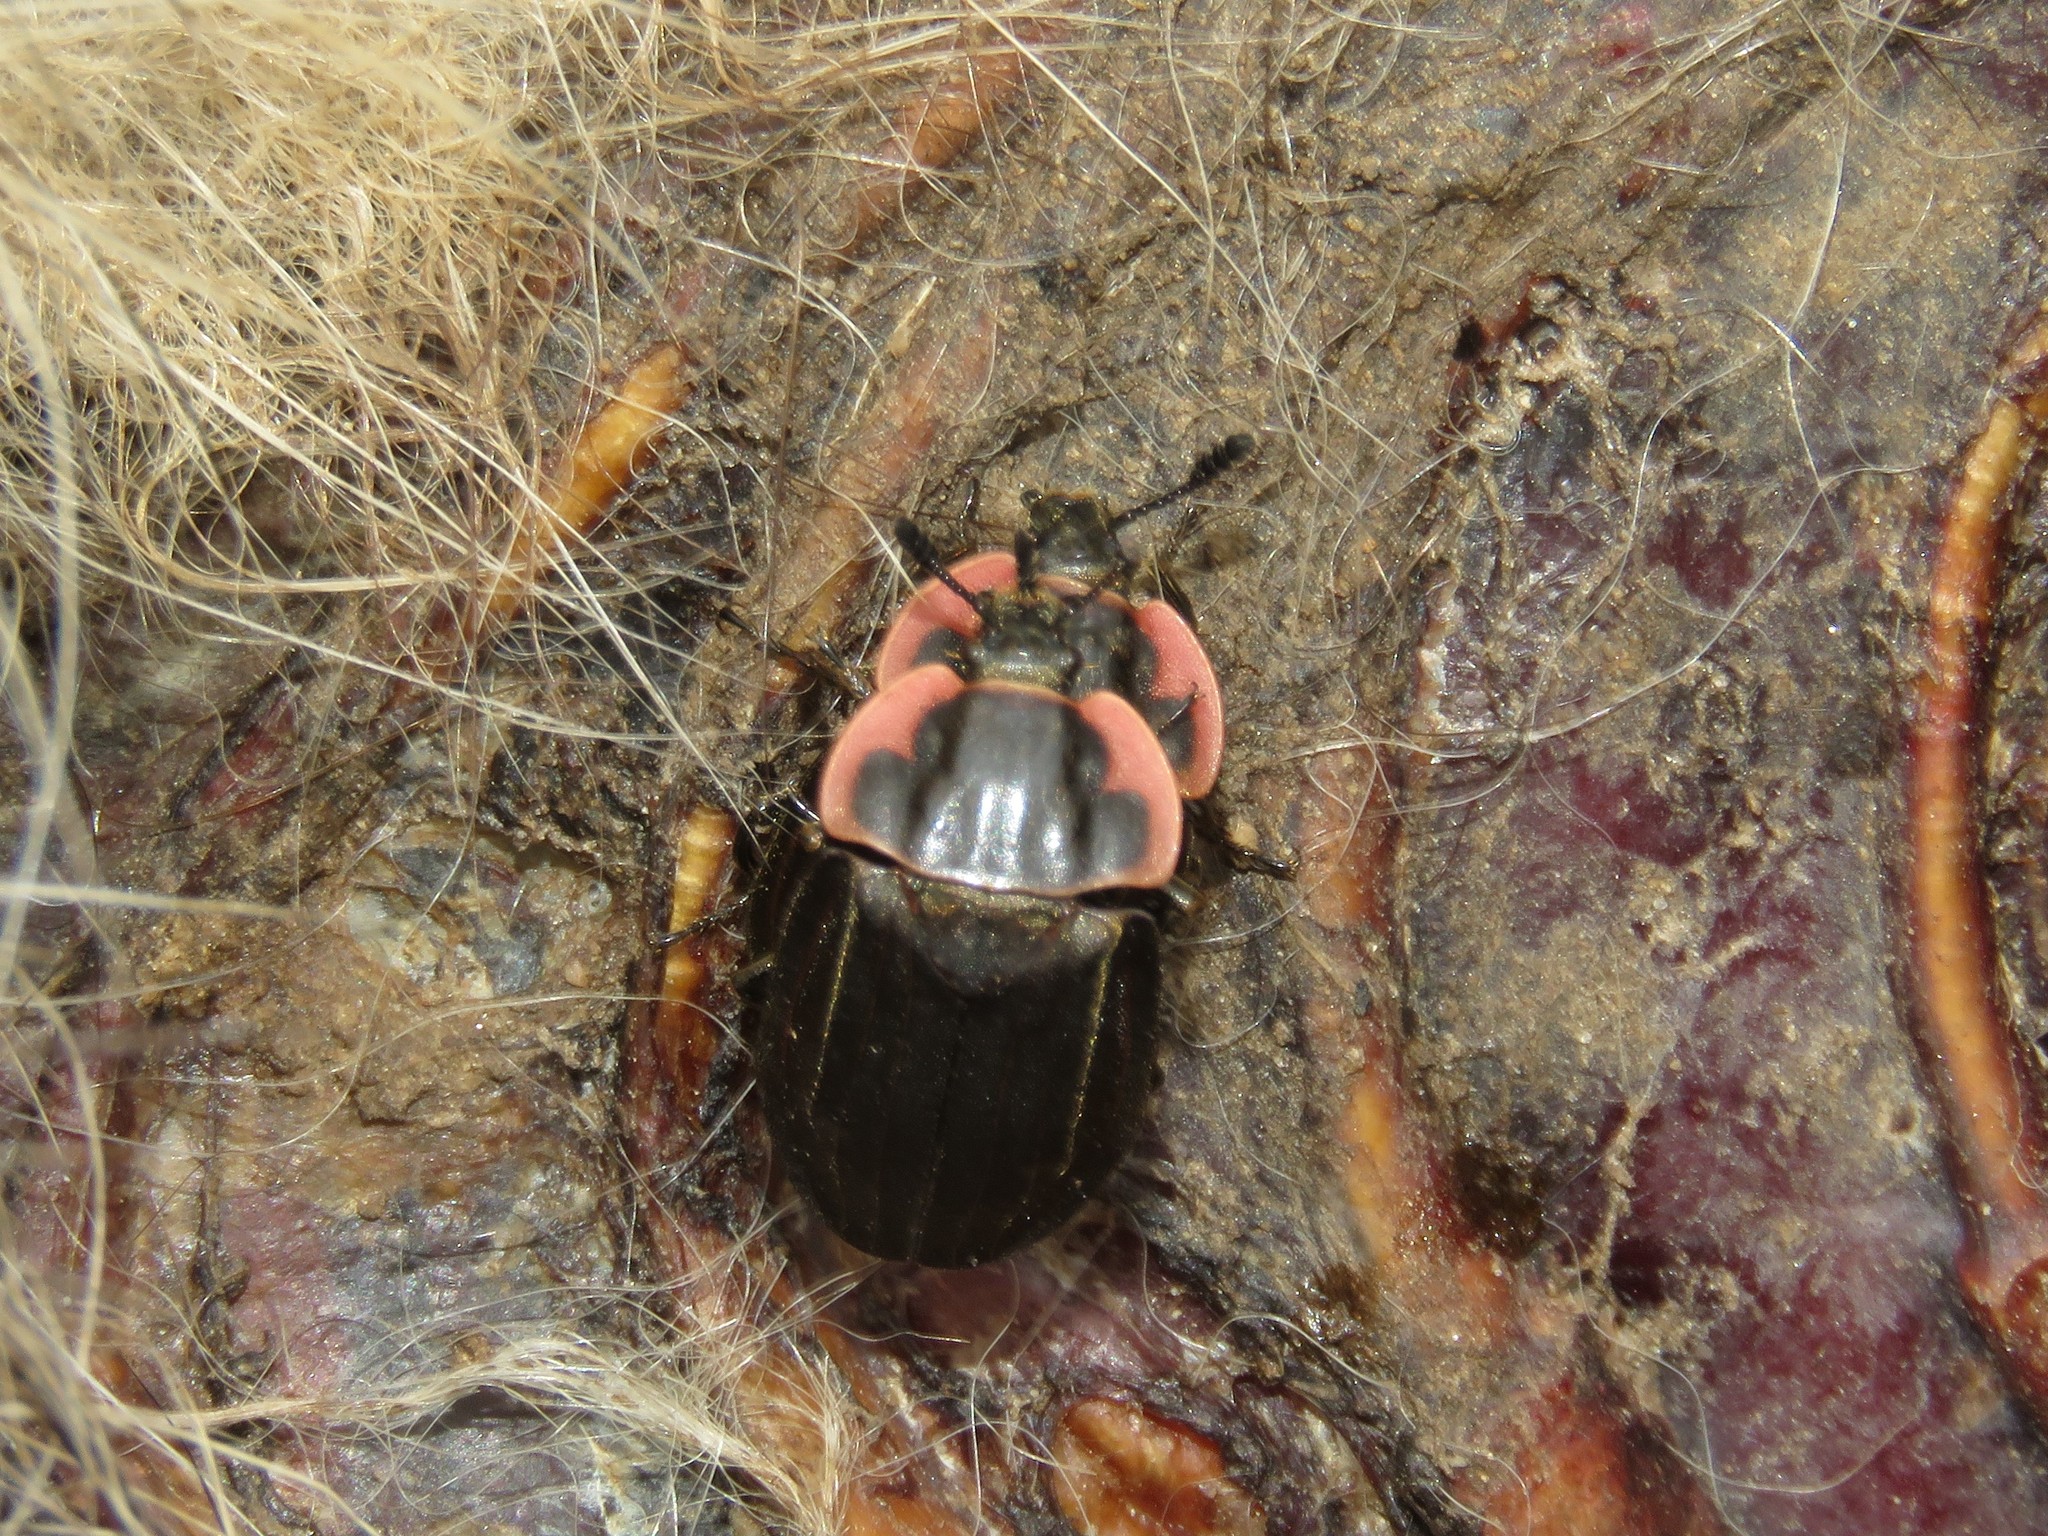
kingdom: Animalia
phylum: Arthropoda
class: Insecta
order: Coleoptera
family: Staphylinidae
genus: Oiceoptoma
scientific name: Oiceoptoma noveboracense
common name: Margined carrion beetle
